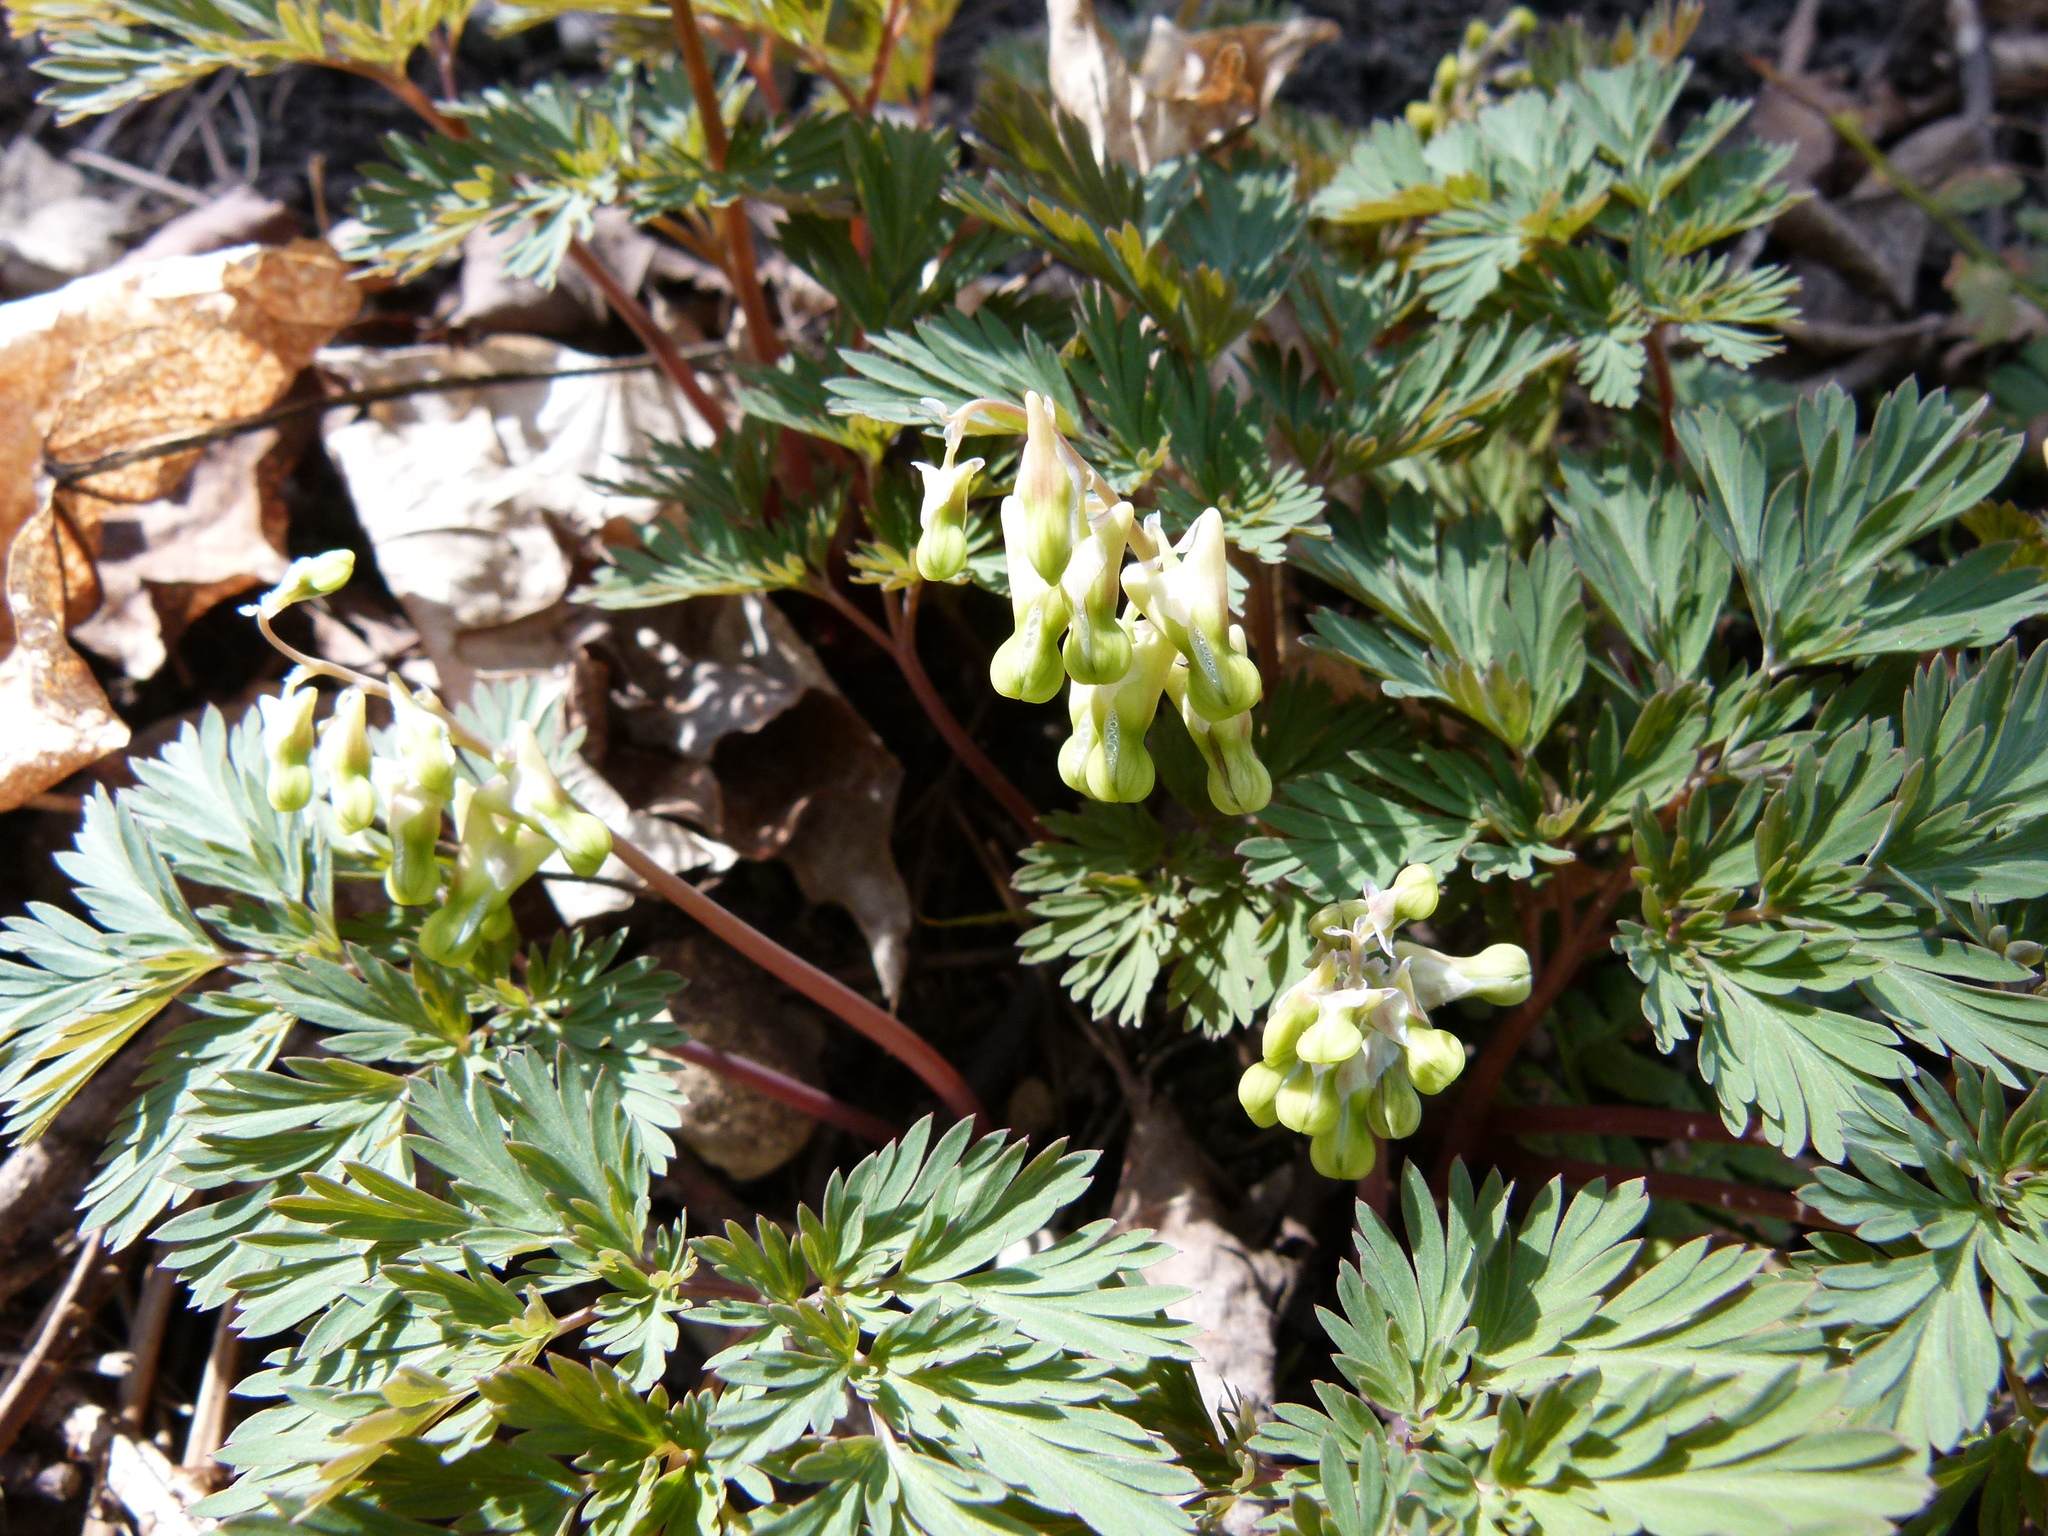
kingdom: Plantae
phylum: Tracheophyta
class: Magnoliopsida
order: Ranunculales
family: Papaveraceae
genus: Dicentra
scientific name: Dicentra cucullaria
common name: Dutchman's breeches
